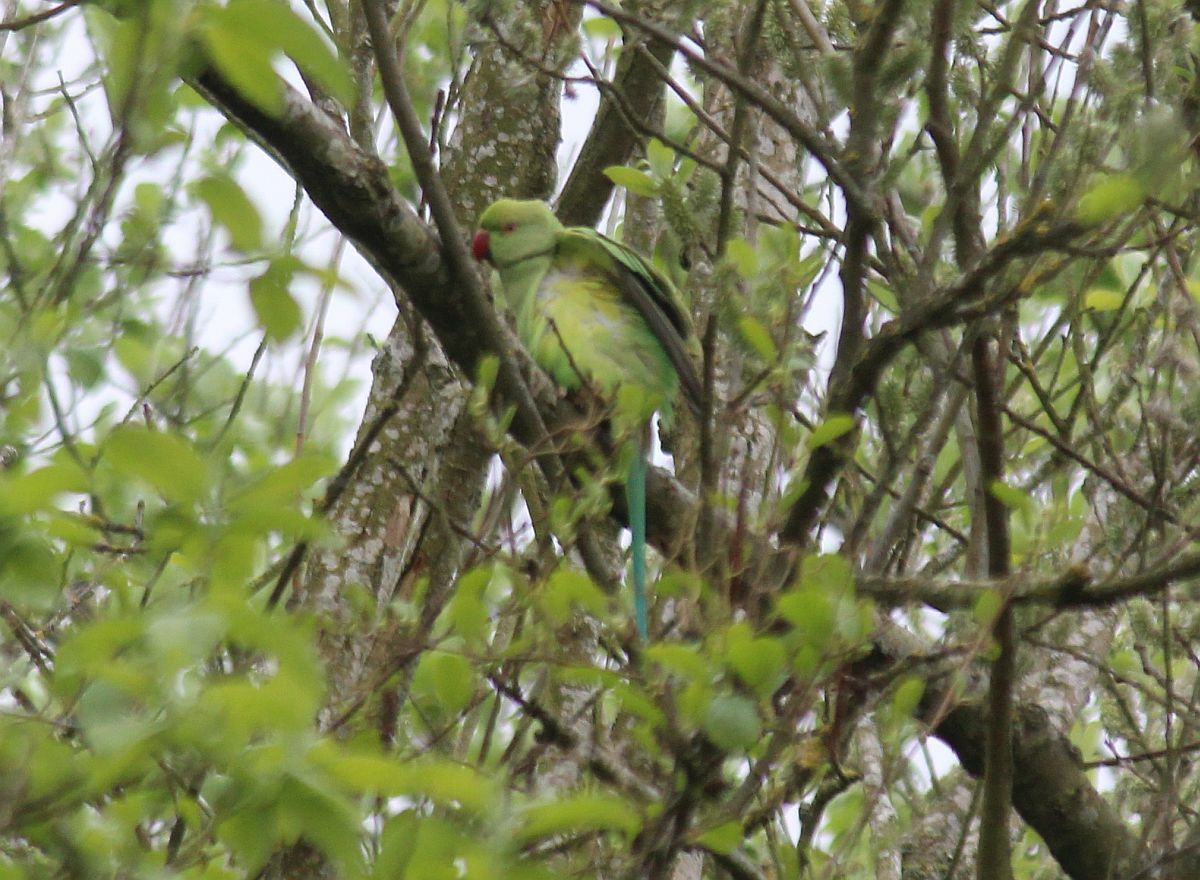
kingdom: Animalia
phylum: Chordata
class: Aves
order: Psittaciformes
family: Psittacidae
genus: Psittacula
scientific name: Psittacula krameri
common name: Rose-ringed parakeet
